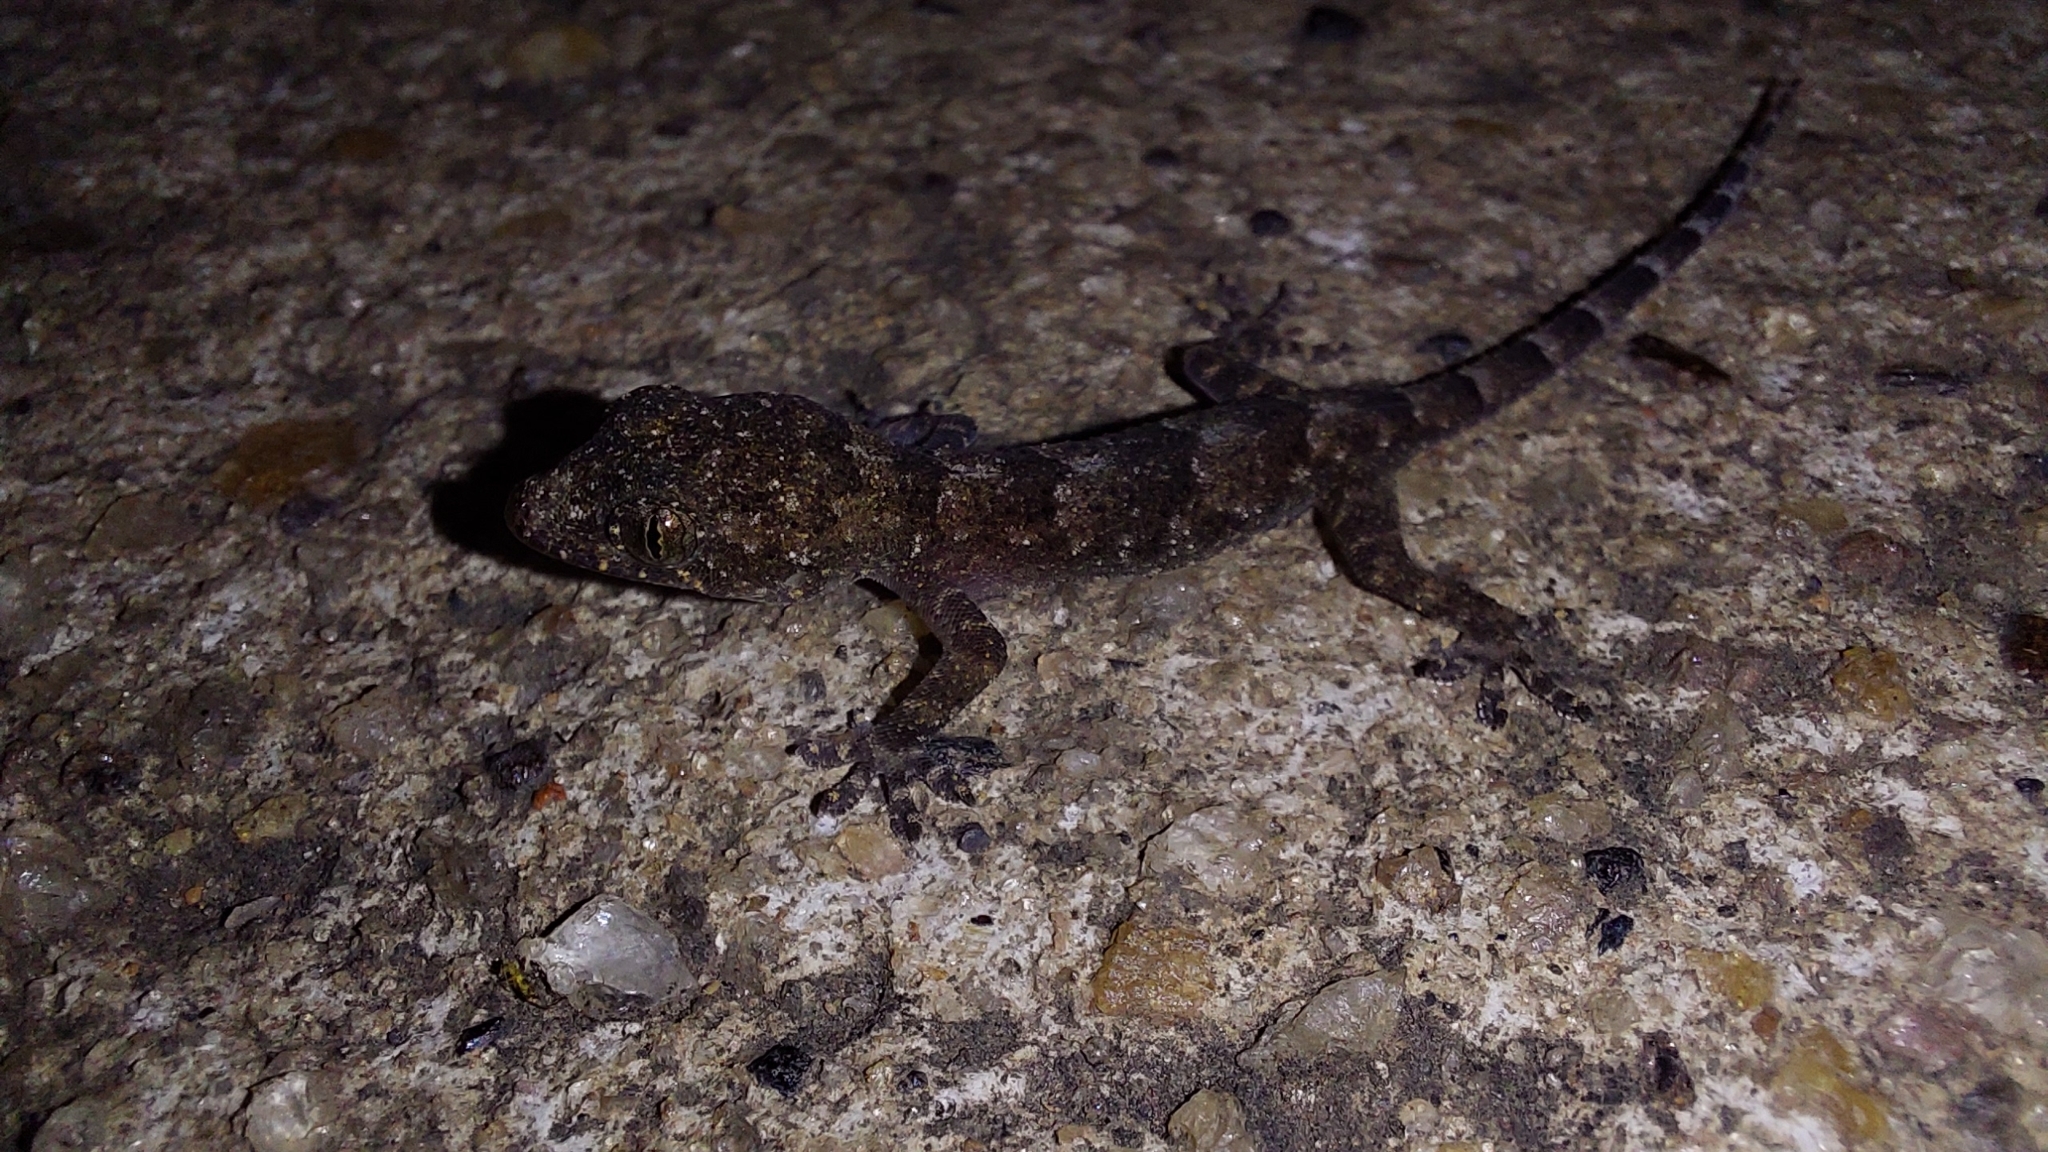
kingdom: Animalia
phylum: Chordata
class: Squamata
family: Gekkonidae
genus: Hemidactylus
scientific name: Hemidactylus mabouia
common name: House gecko
